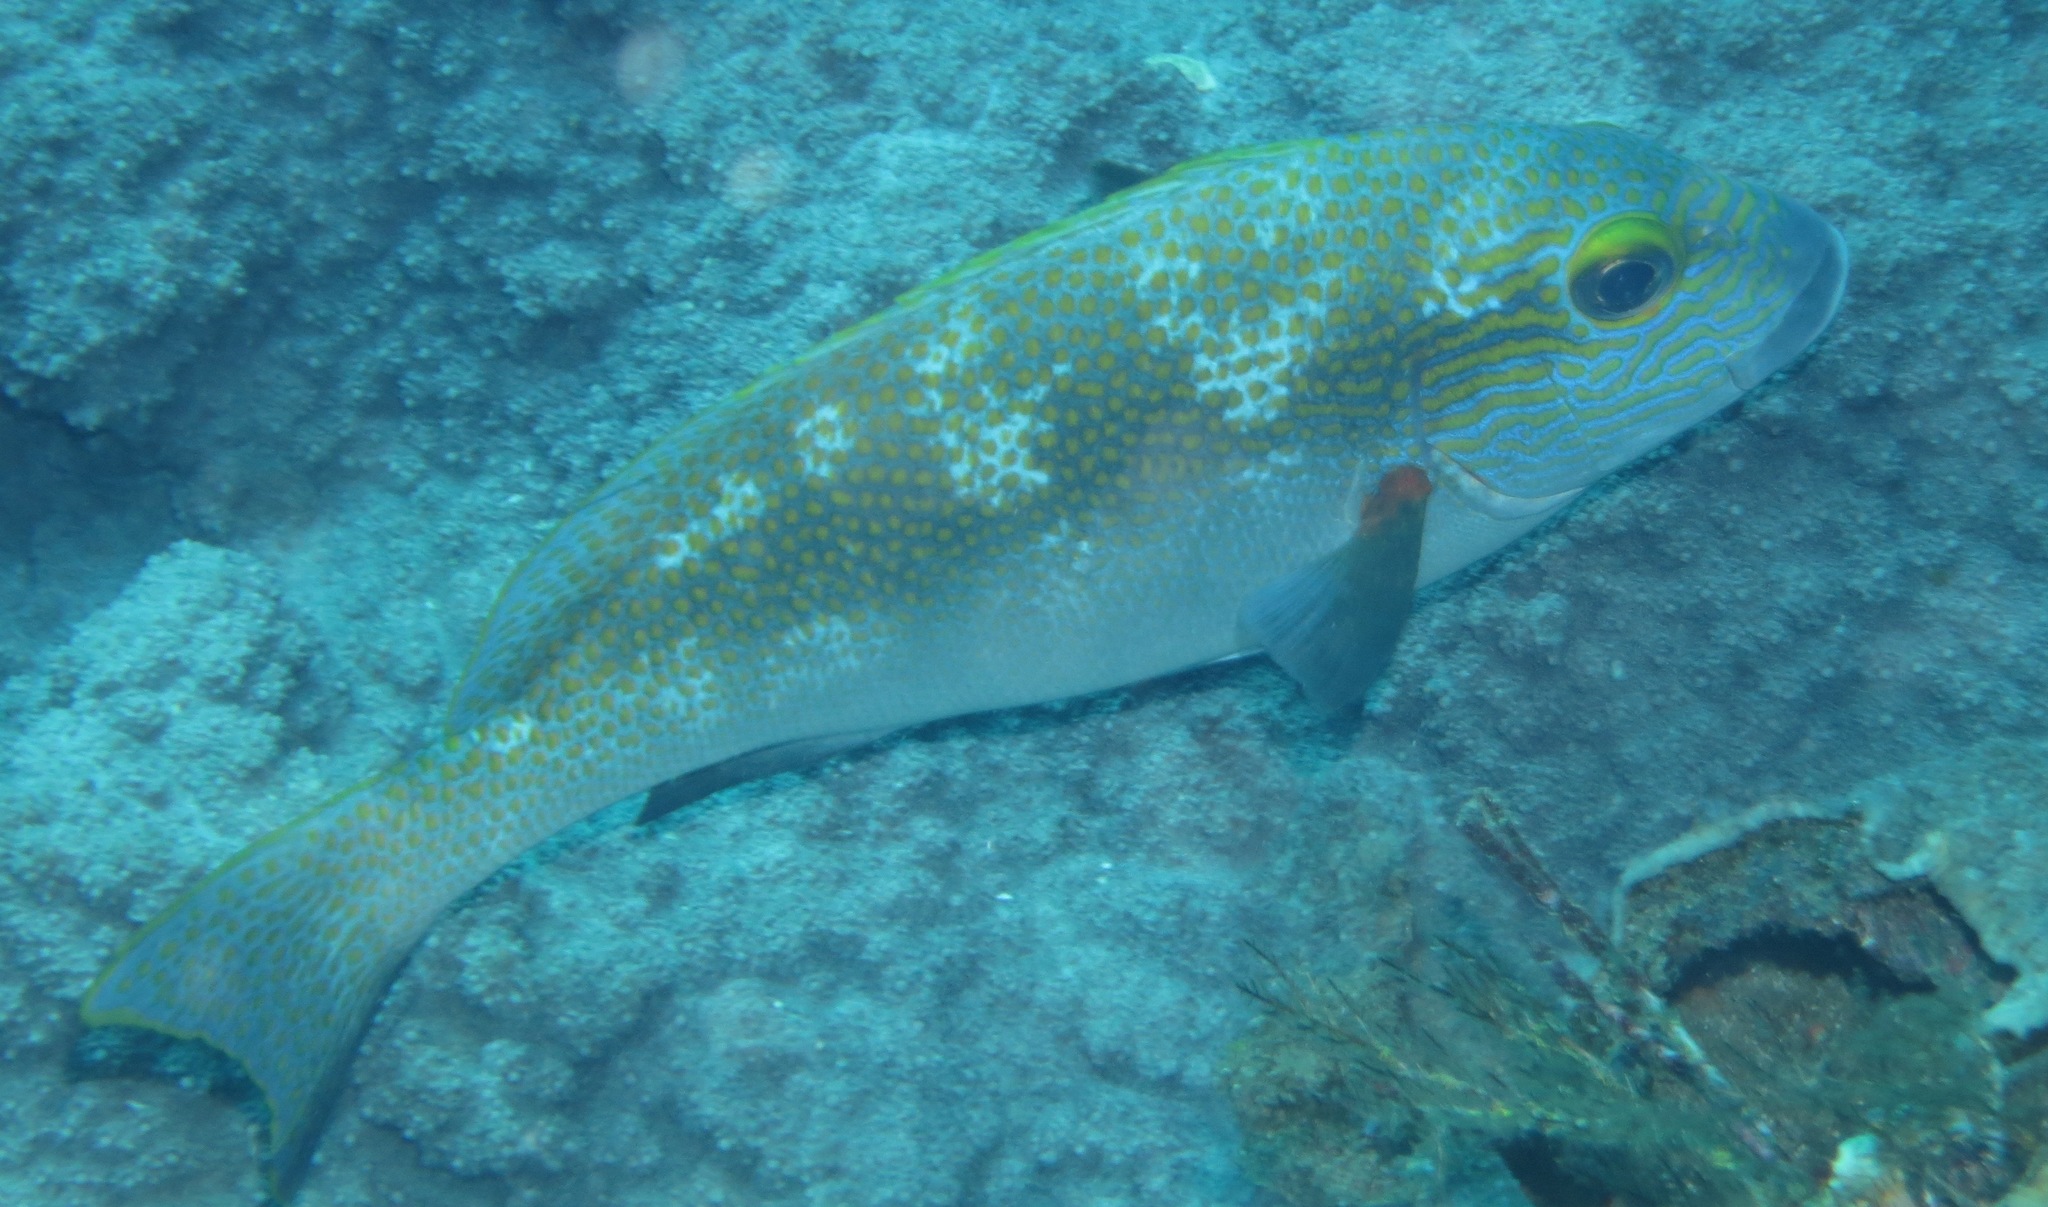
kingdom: Animalia
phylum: Chordata
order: Perciformes
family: Haemulidae
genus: Plectorhinchus
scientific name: Plectorhinchus flavomaculatus
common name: Netted sweetlips
